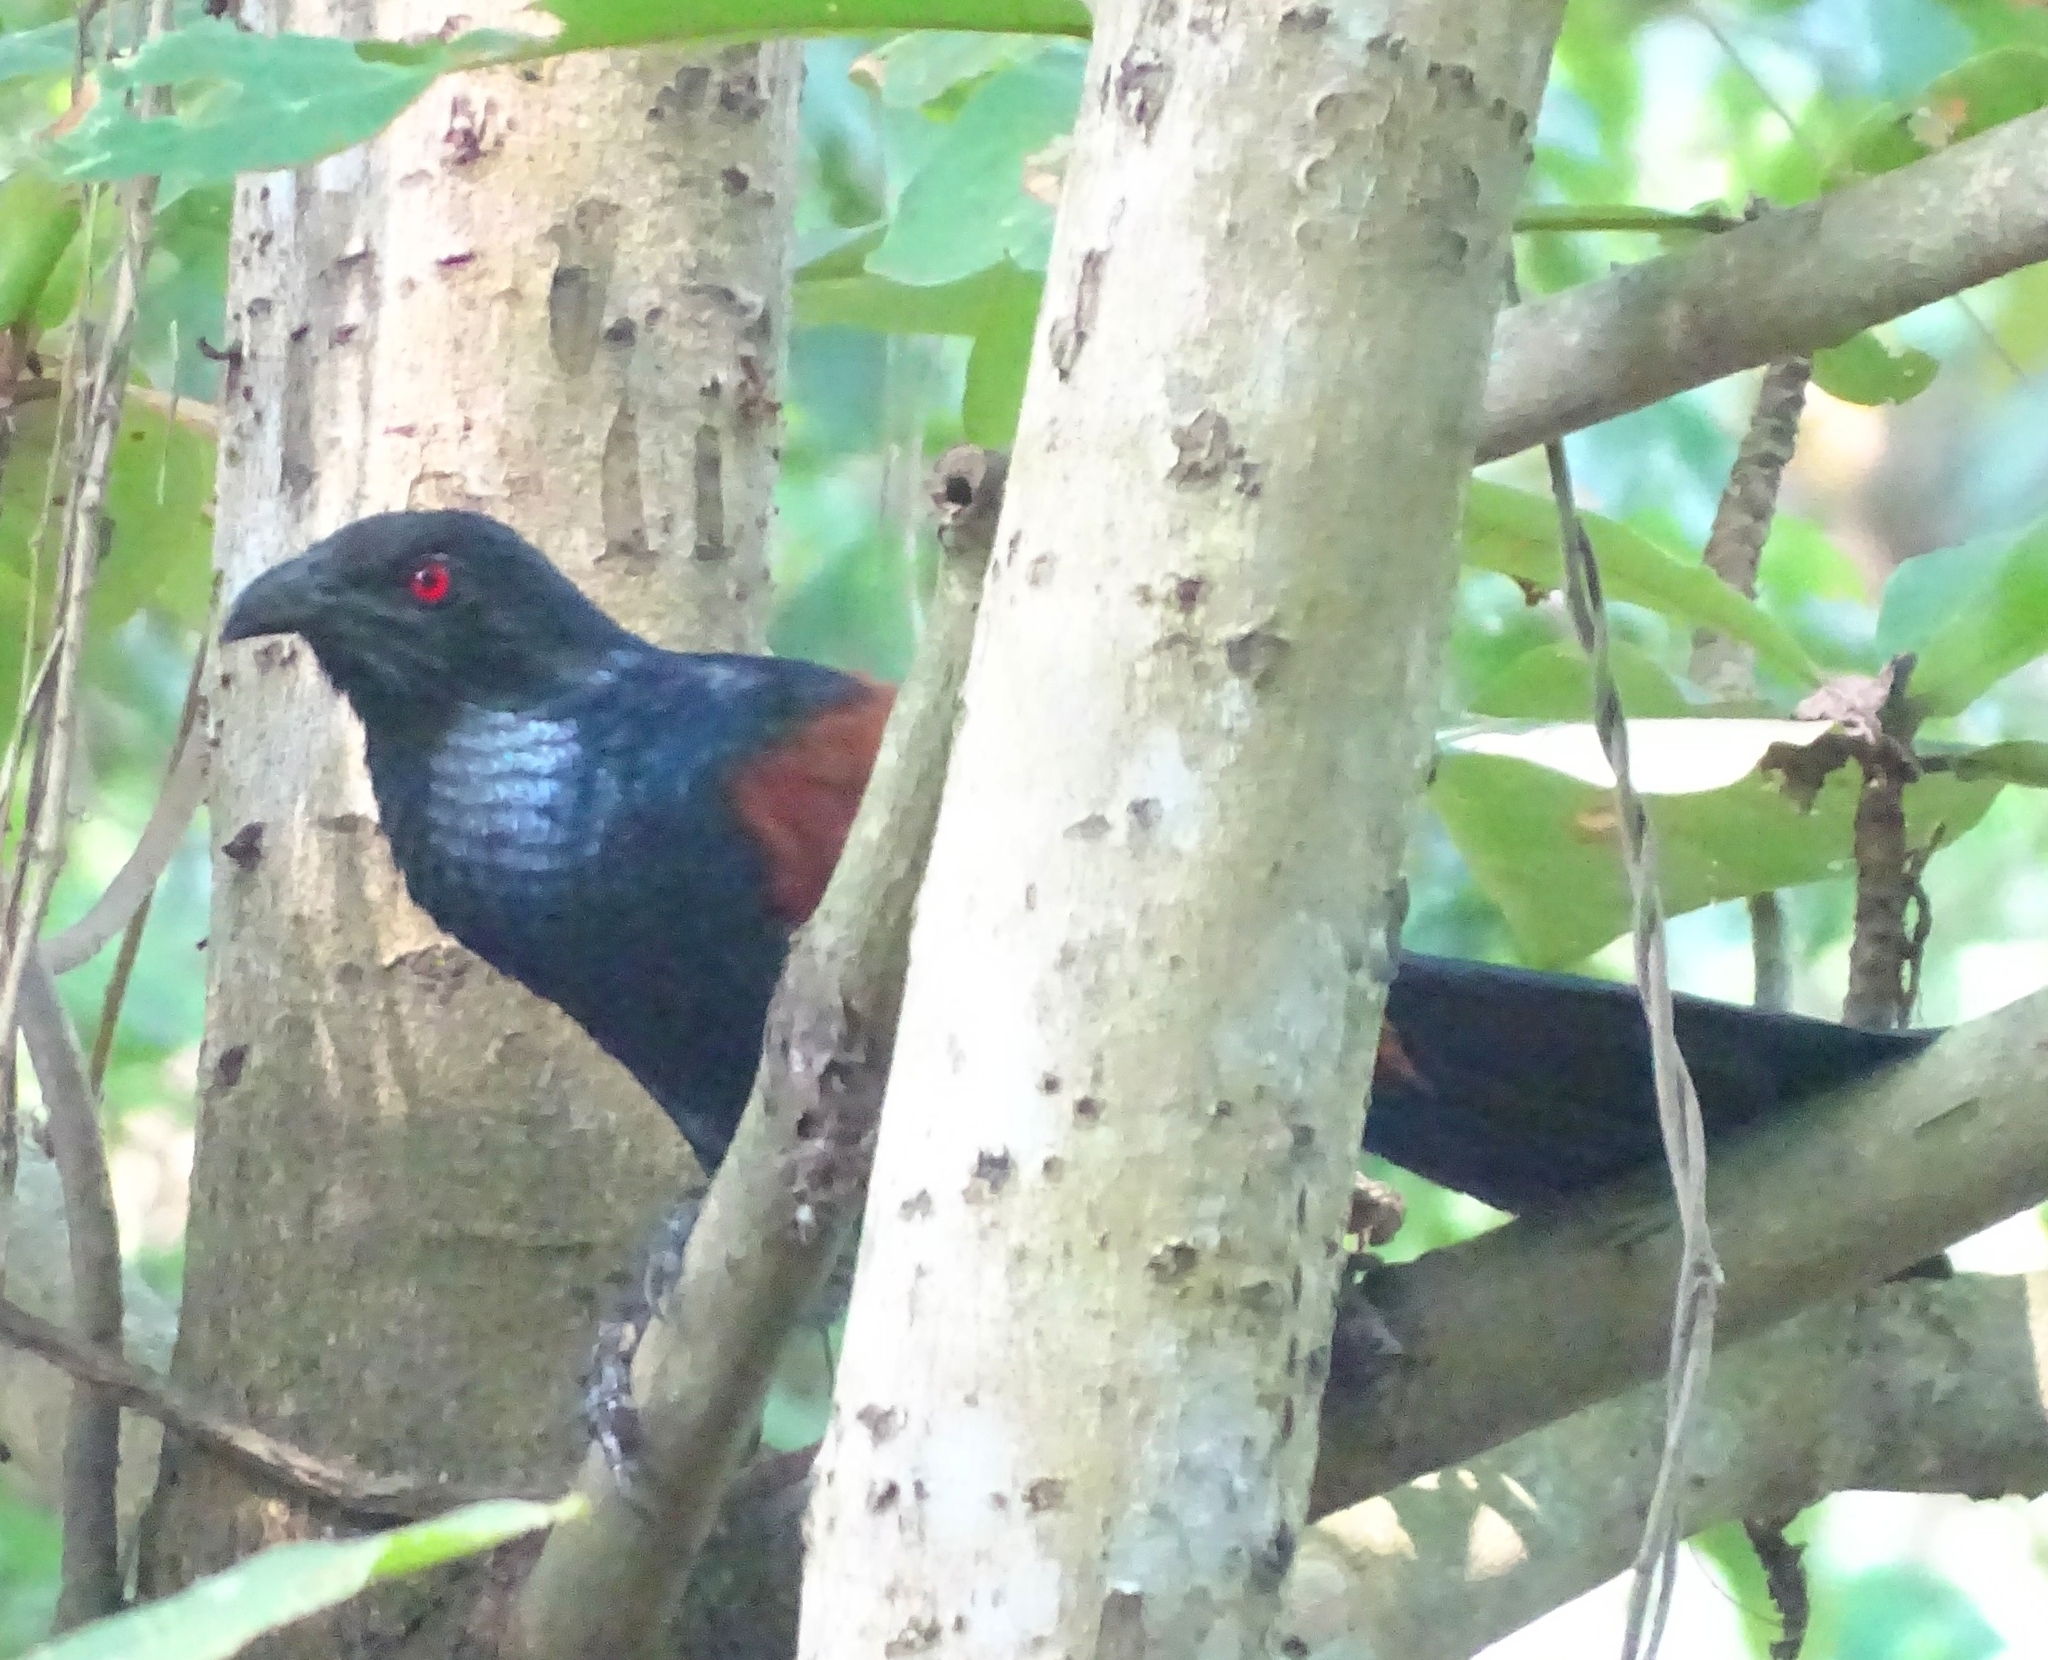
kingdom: Animalia
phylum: Chordata
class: Aves
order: Cuculiformes
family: Cuculidae
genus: Centropus
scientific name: Centropus sinensis
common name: Greater coucal
